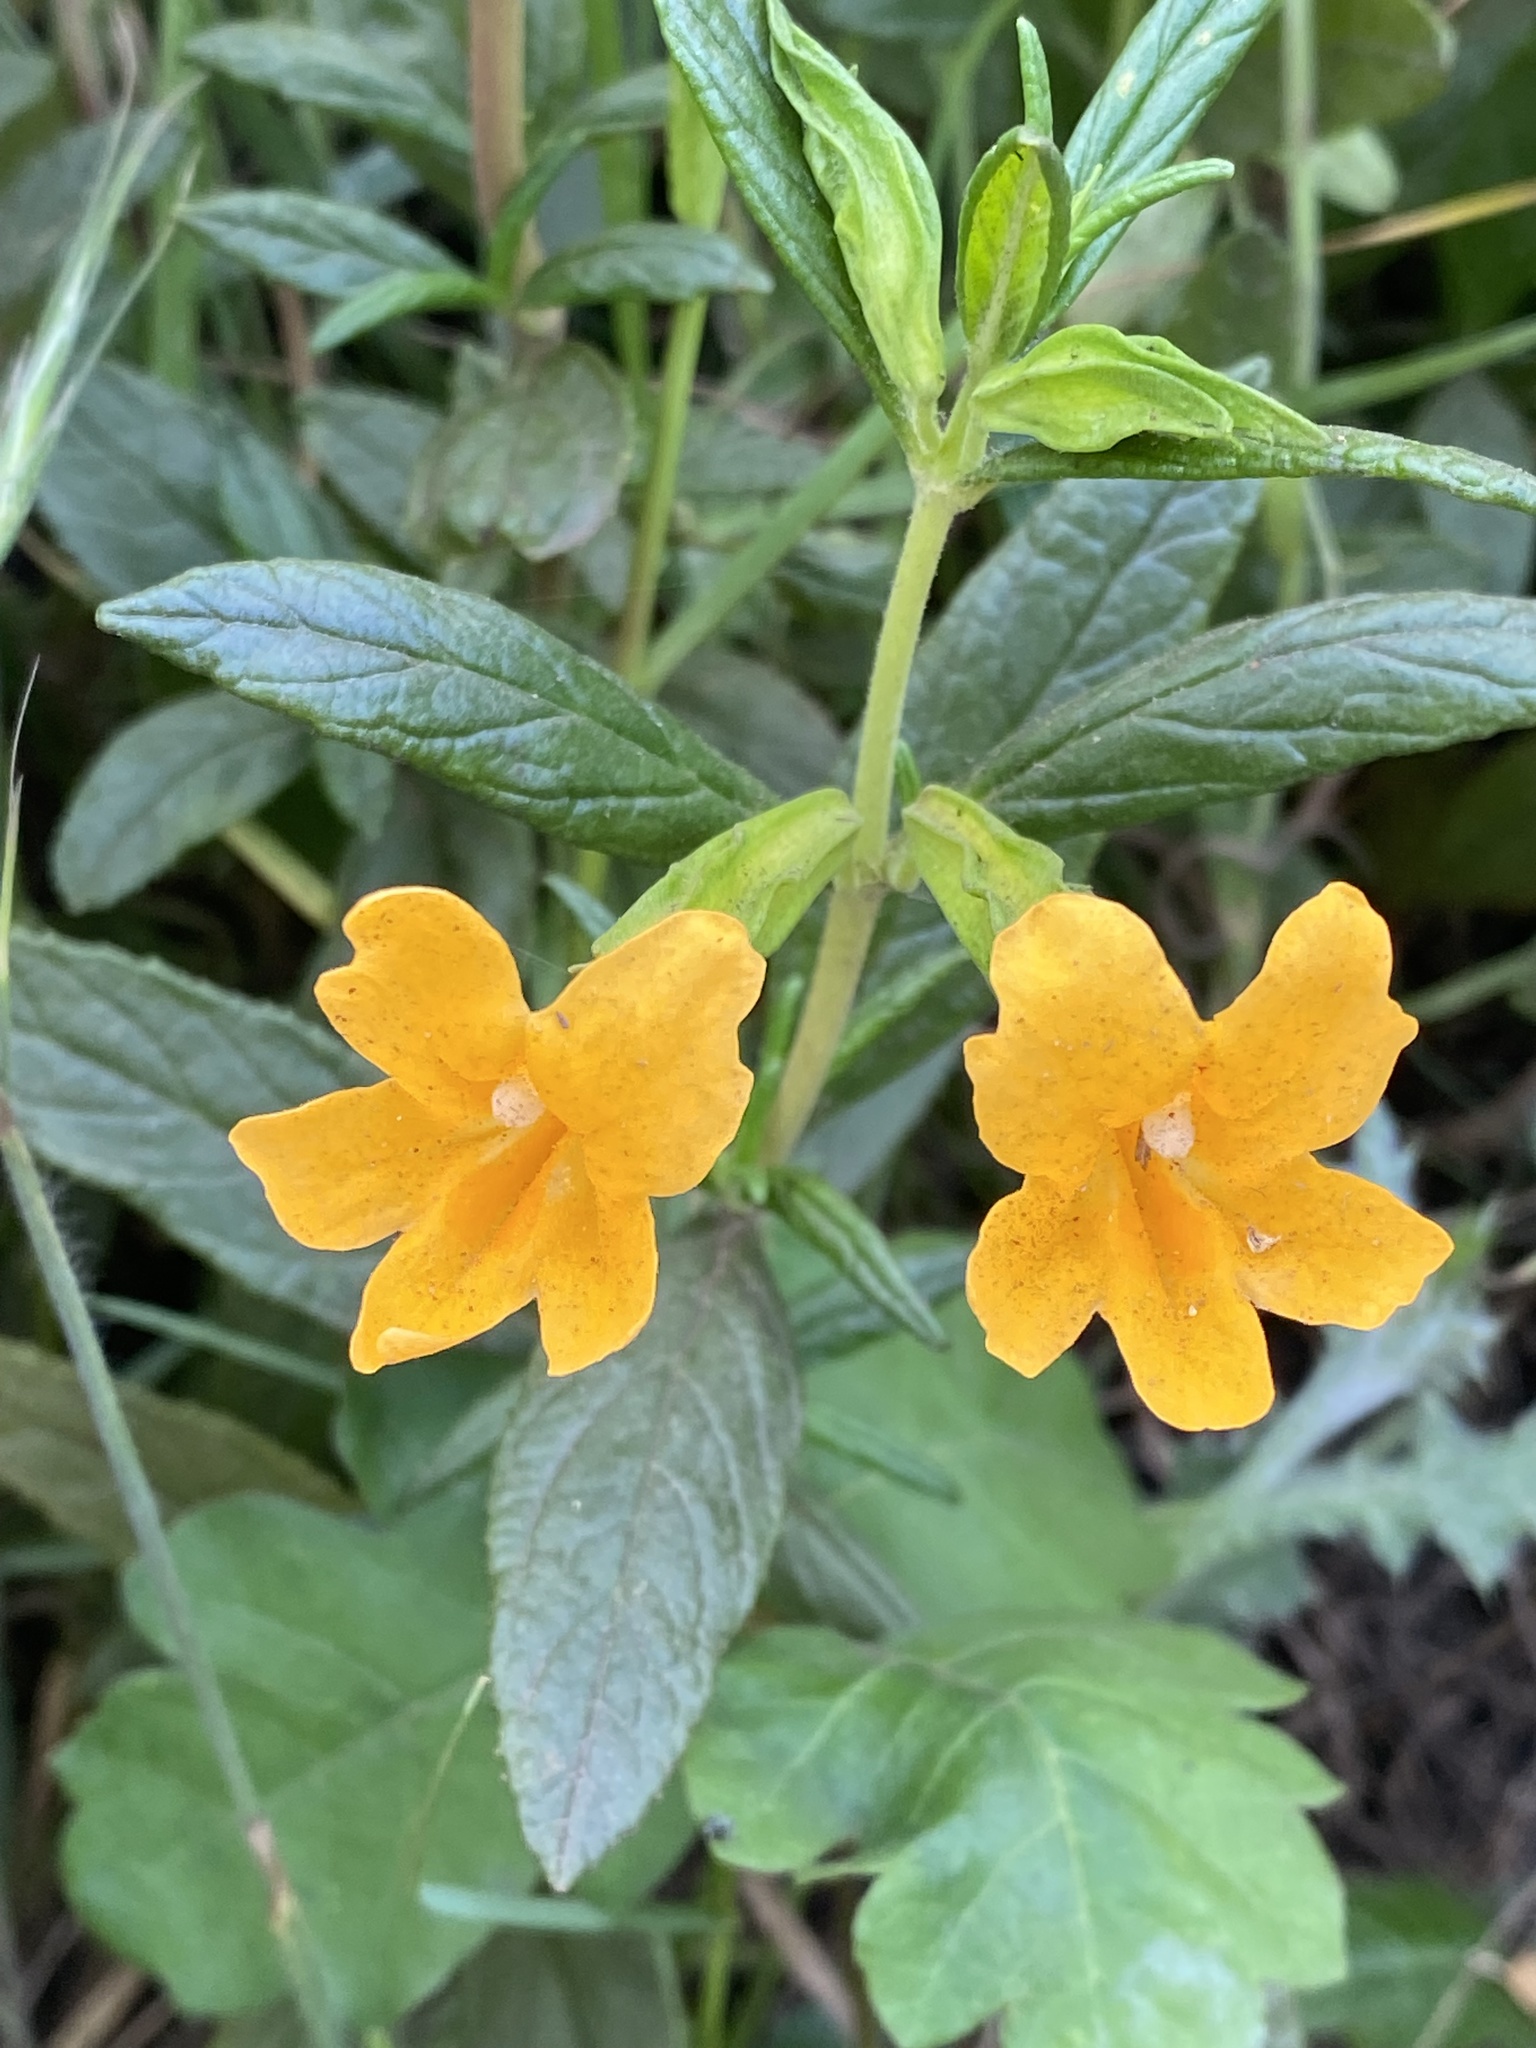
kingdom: Plantae
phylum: Tracheophyta
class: Magnoliopsida
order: Lamiales
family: Phrymaceae
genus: Diplacus
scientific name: Diplacus aurantiacus
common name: Bush monkey-flower
